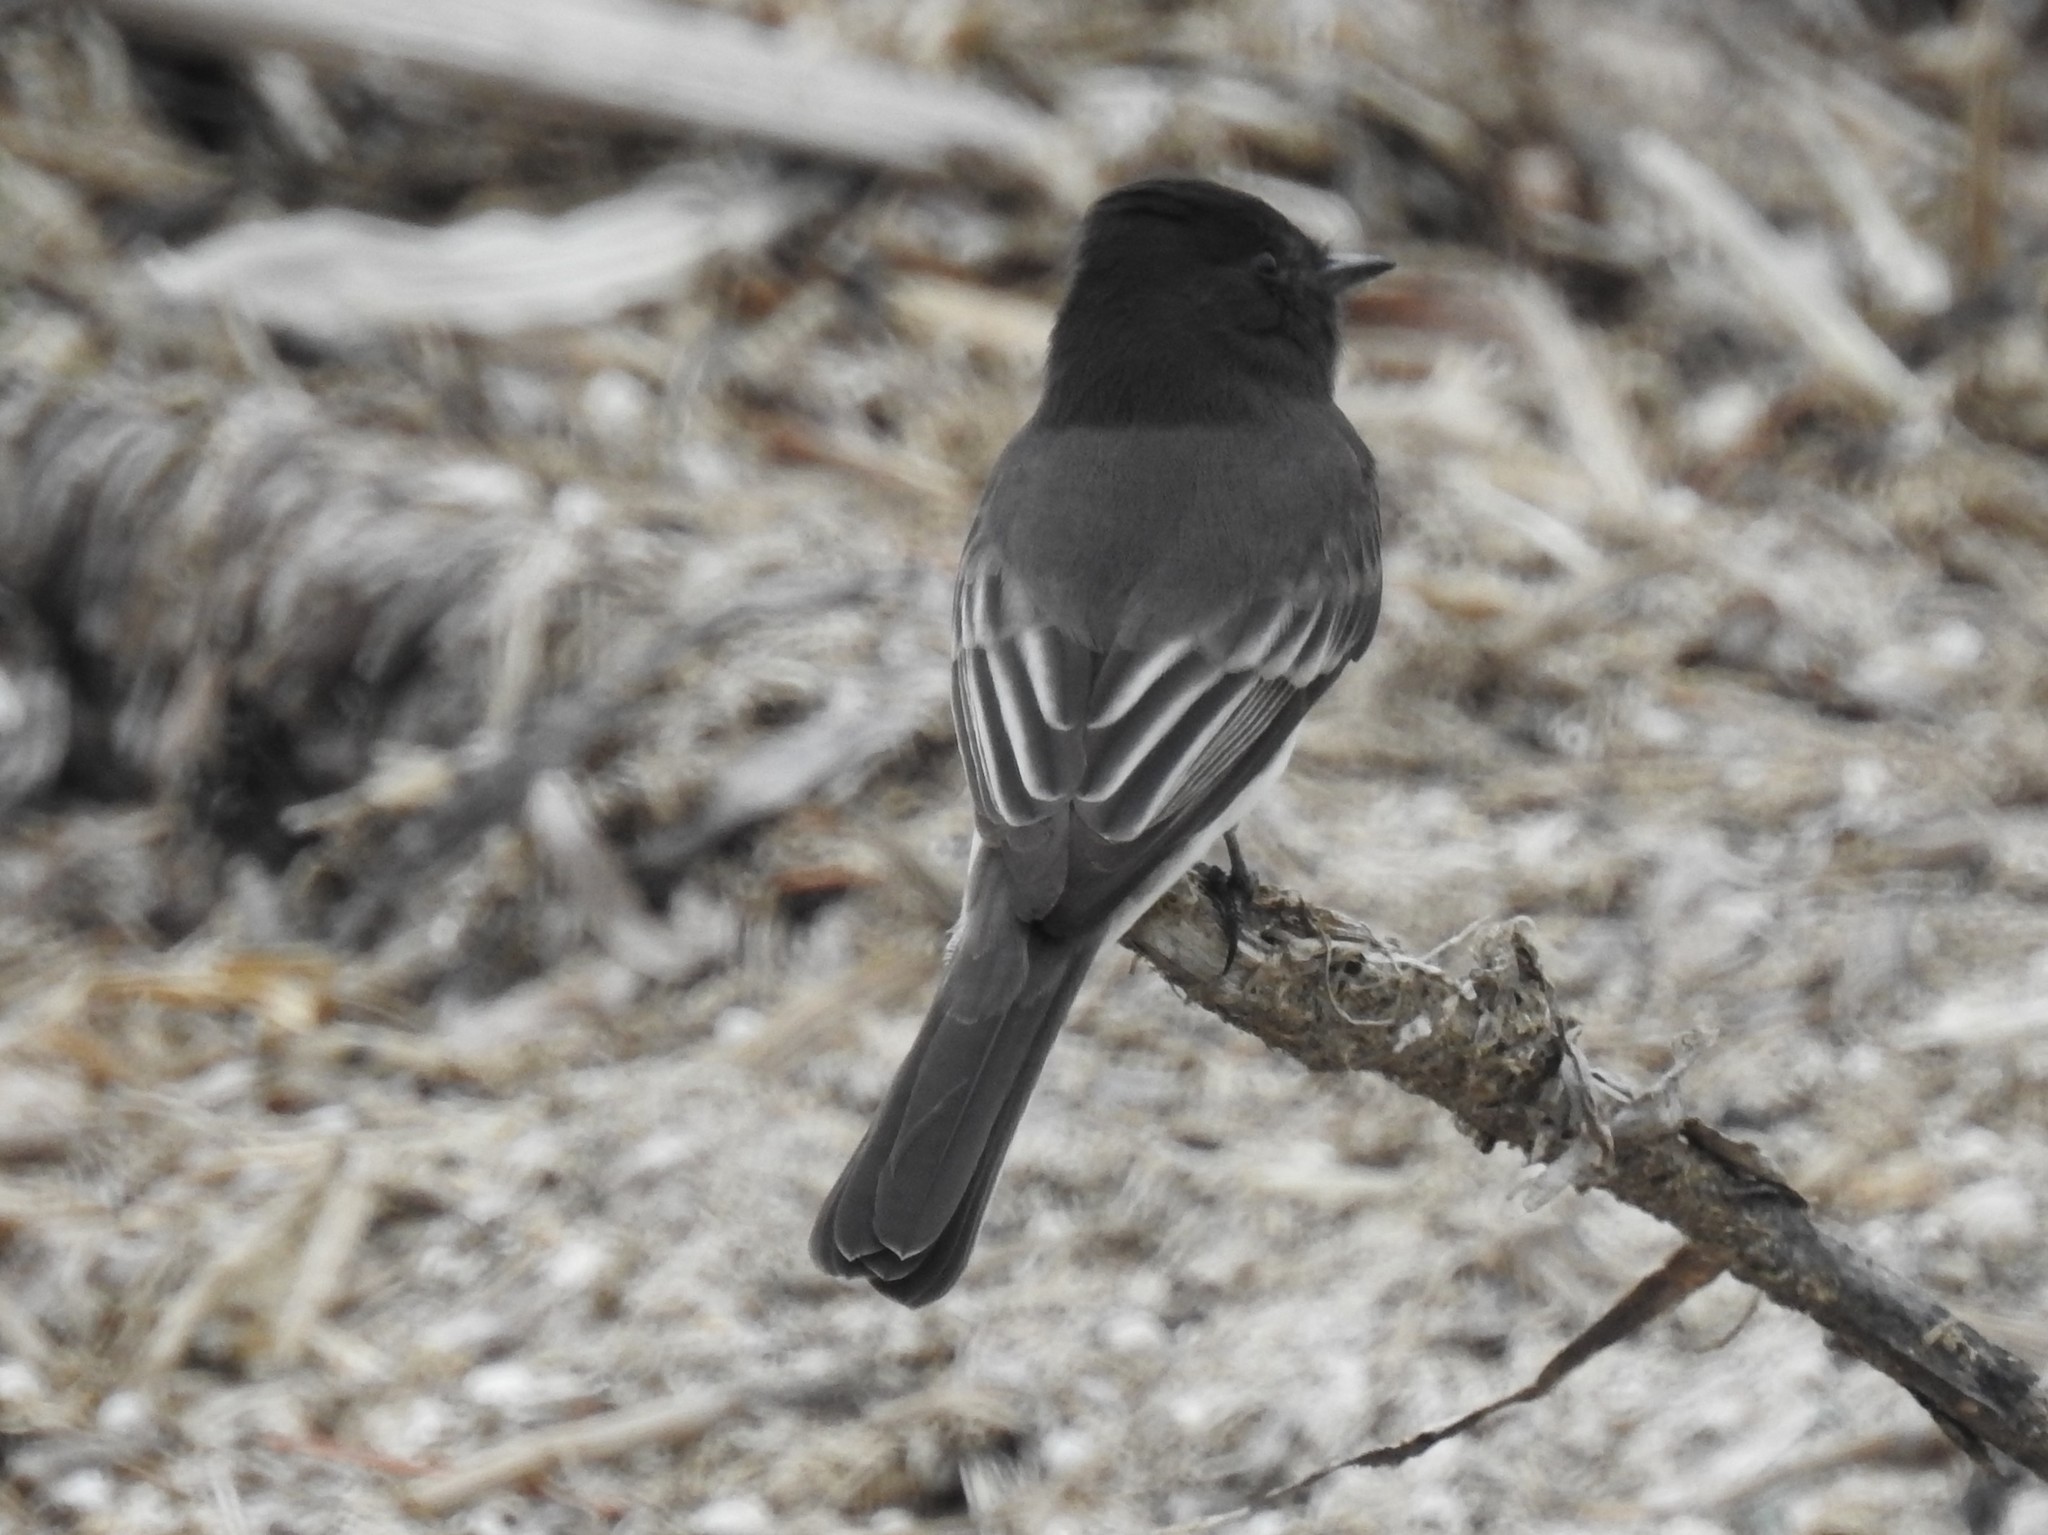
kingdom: Animalia
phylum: Chordata
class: Aves
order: Passeriformes
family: Tyrannidae
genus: Sayornis
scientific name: Sayornis nigricans
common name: Black phoebe
